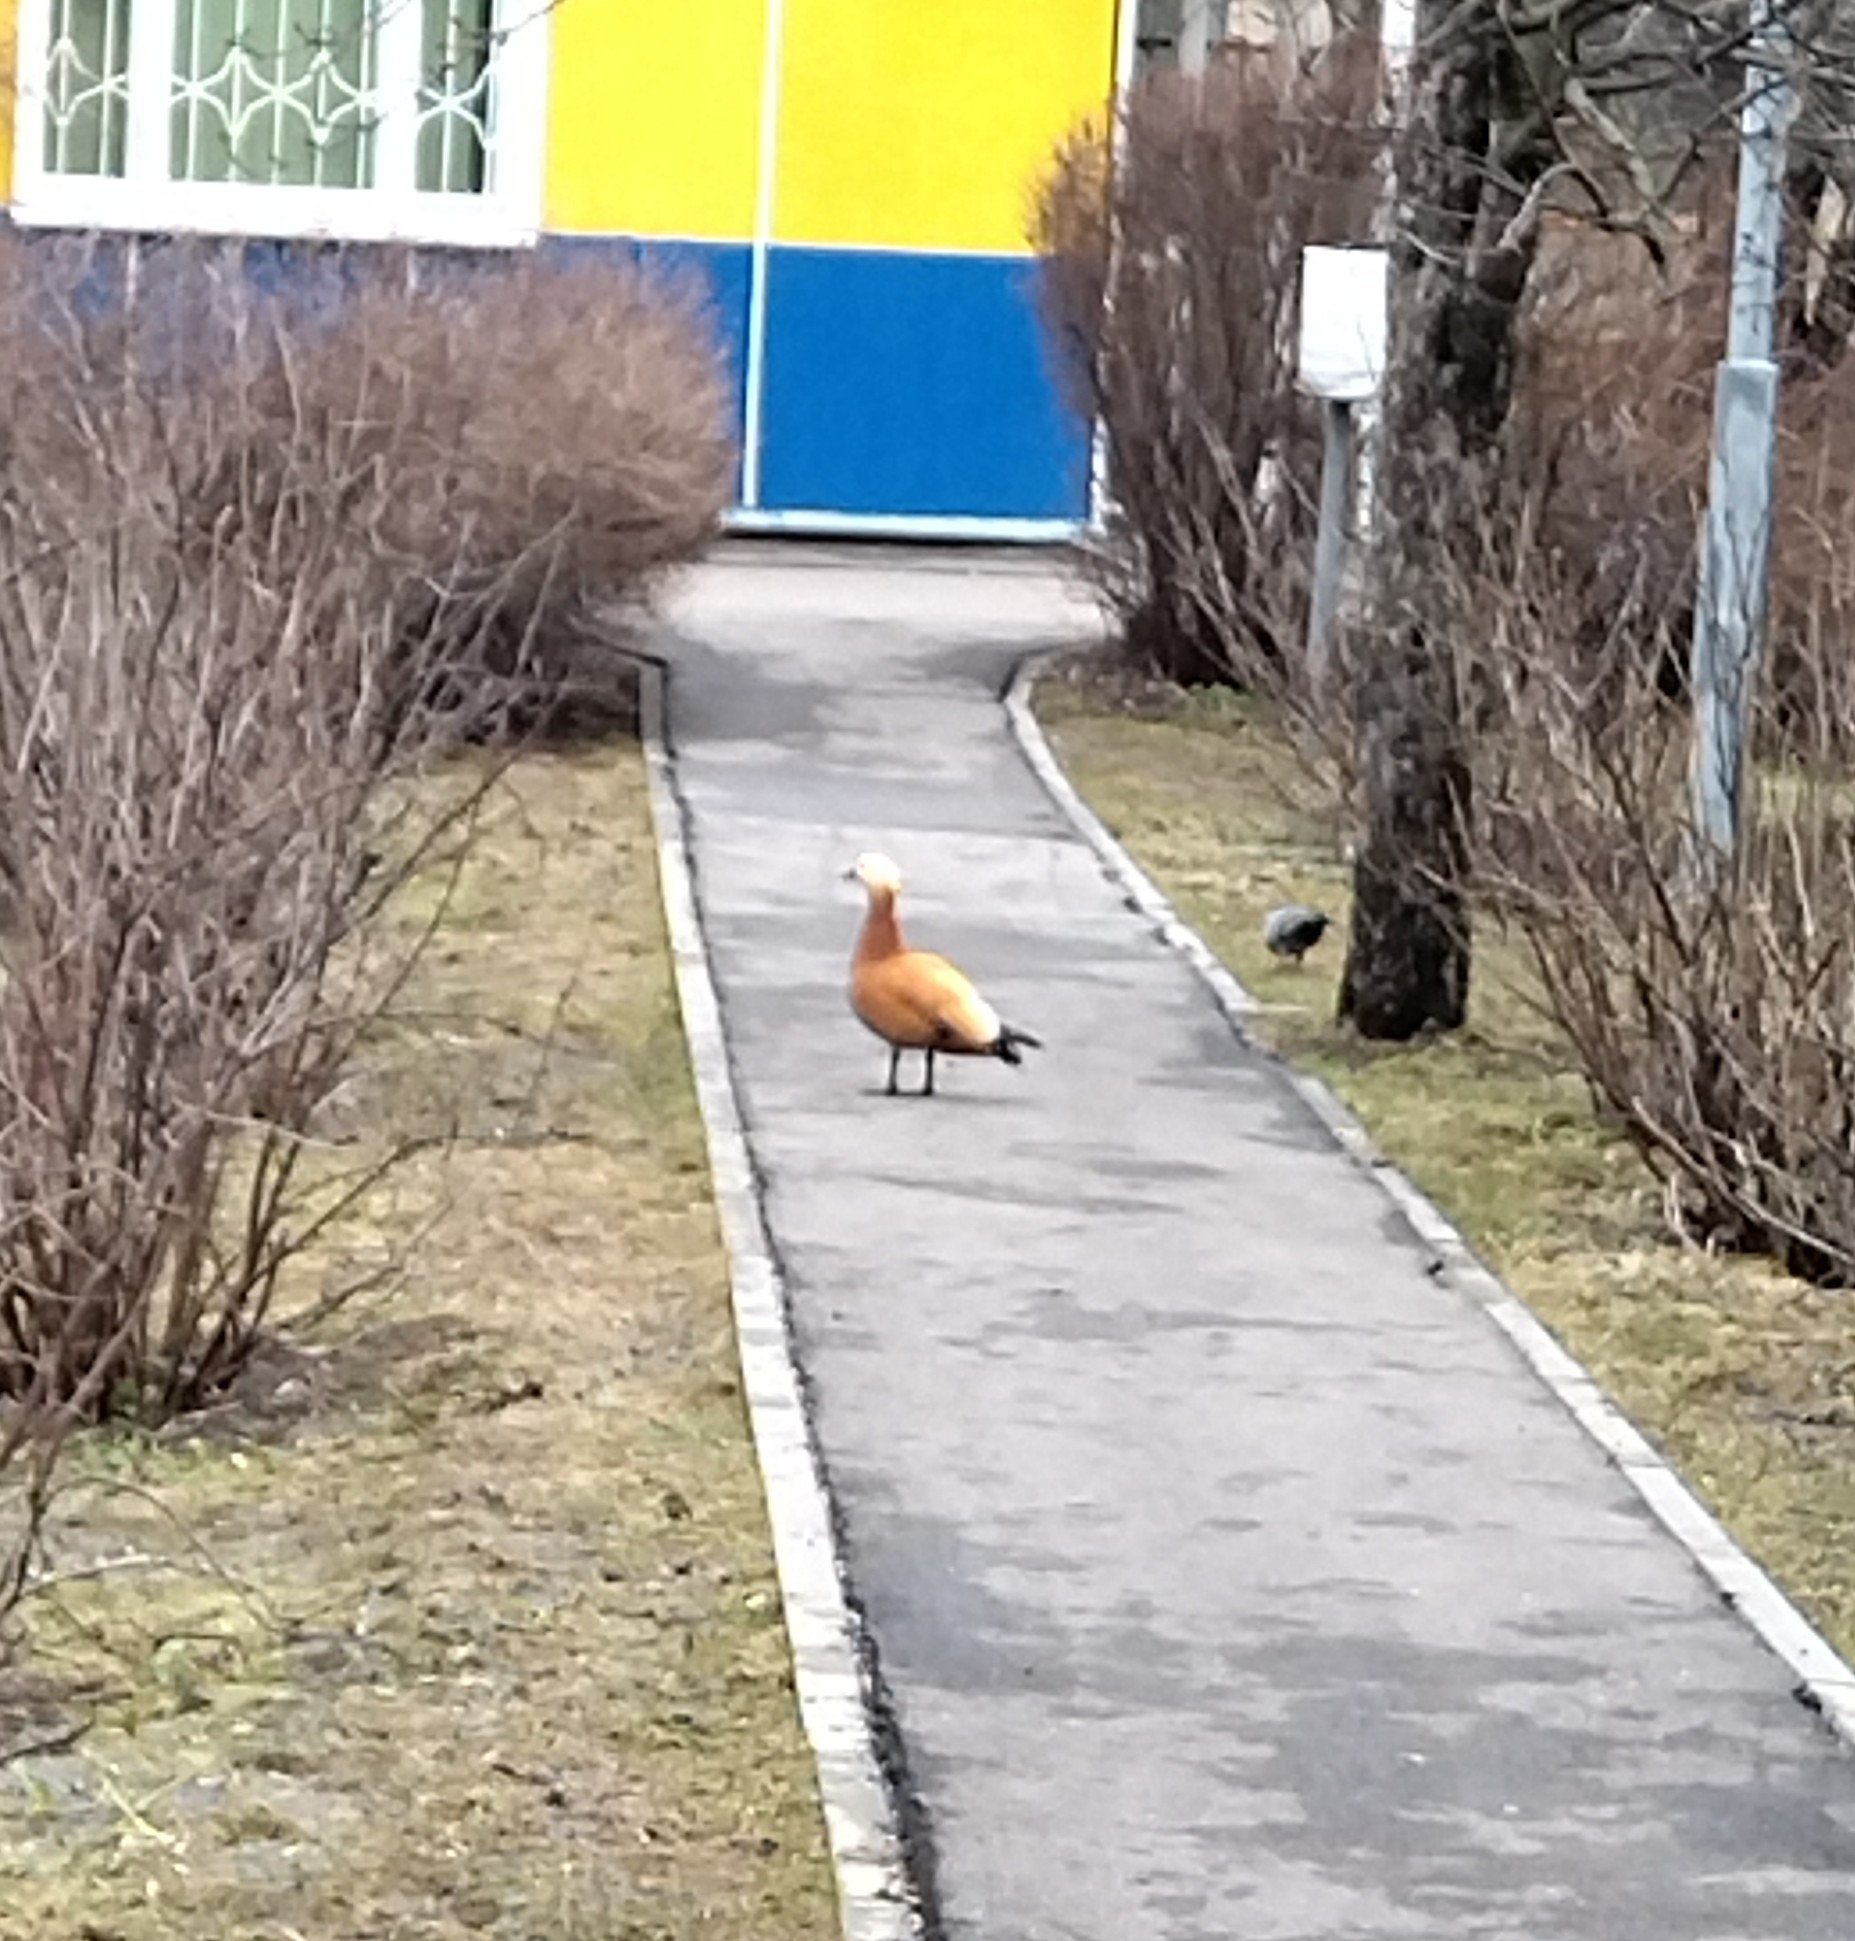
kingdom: Animalia
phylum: Chordata
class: Aves
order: Anseriformes
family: Anatidae
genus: Tadorna
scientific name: Tadorna ferruginea
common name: Ruddy shelduck
